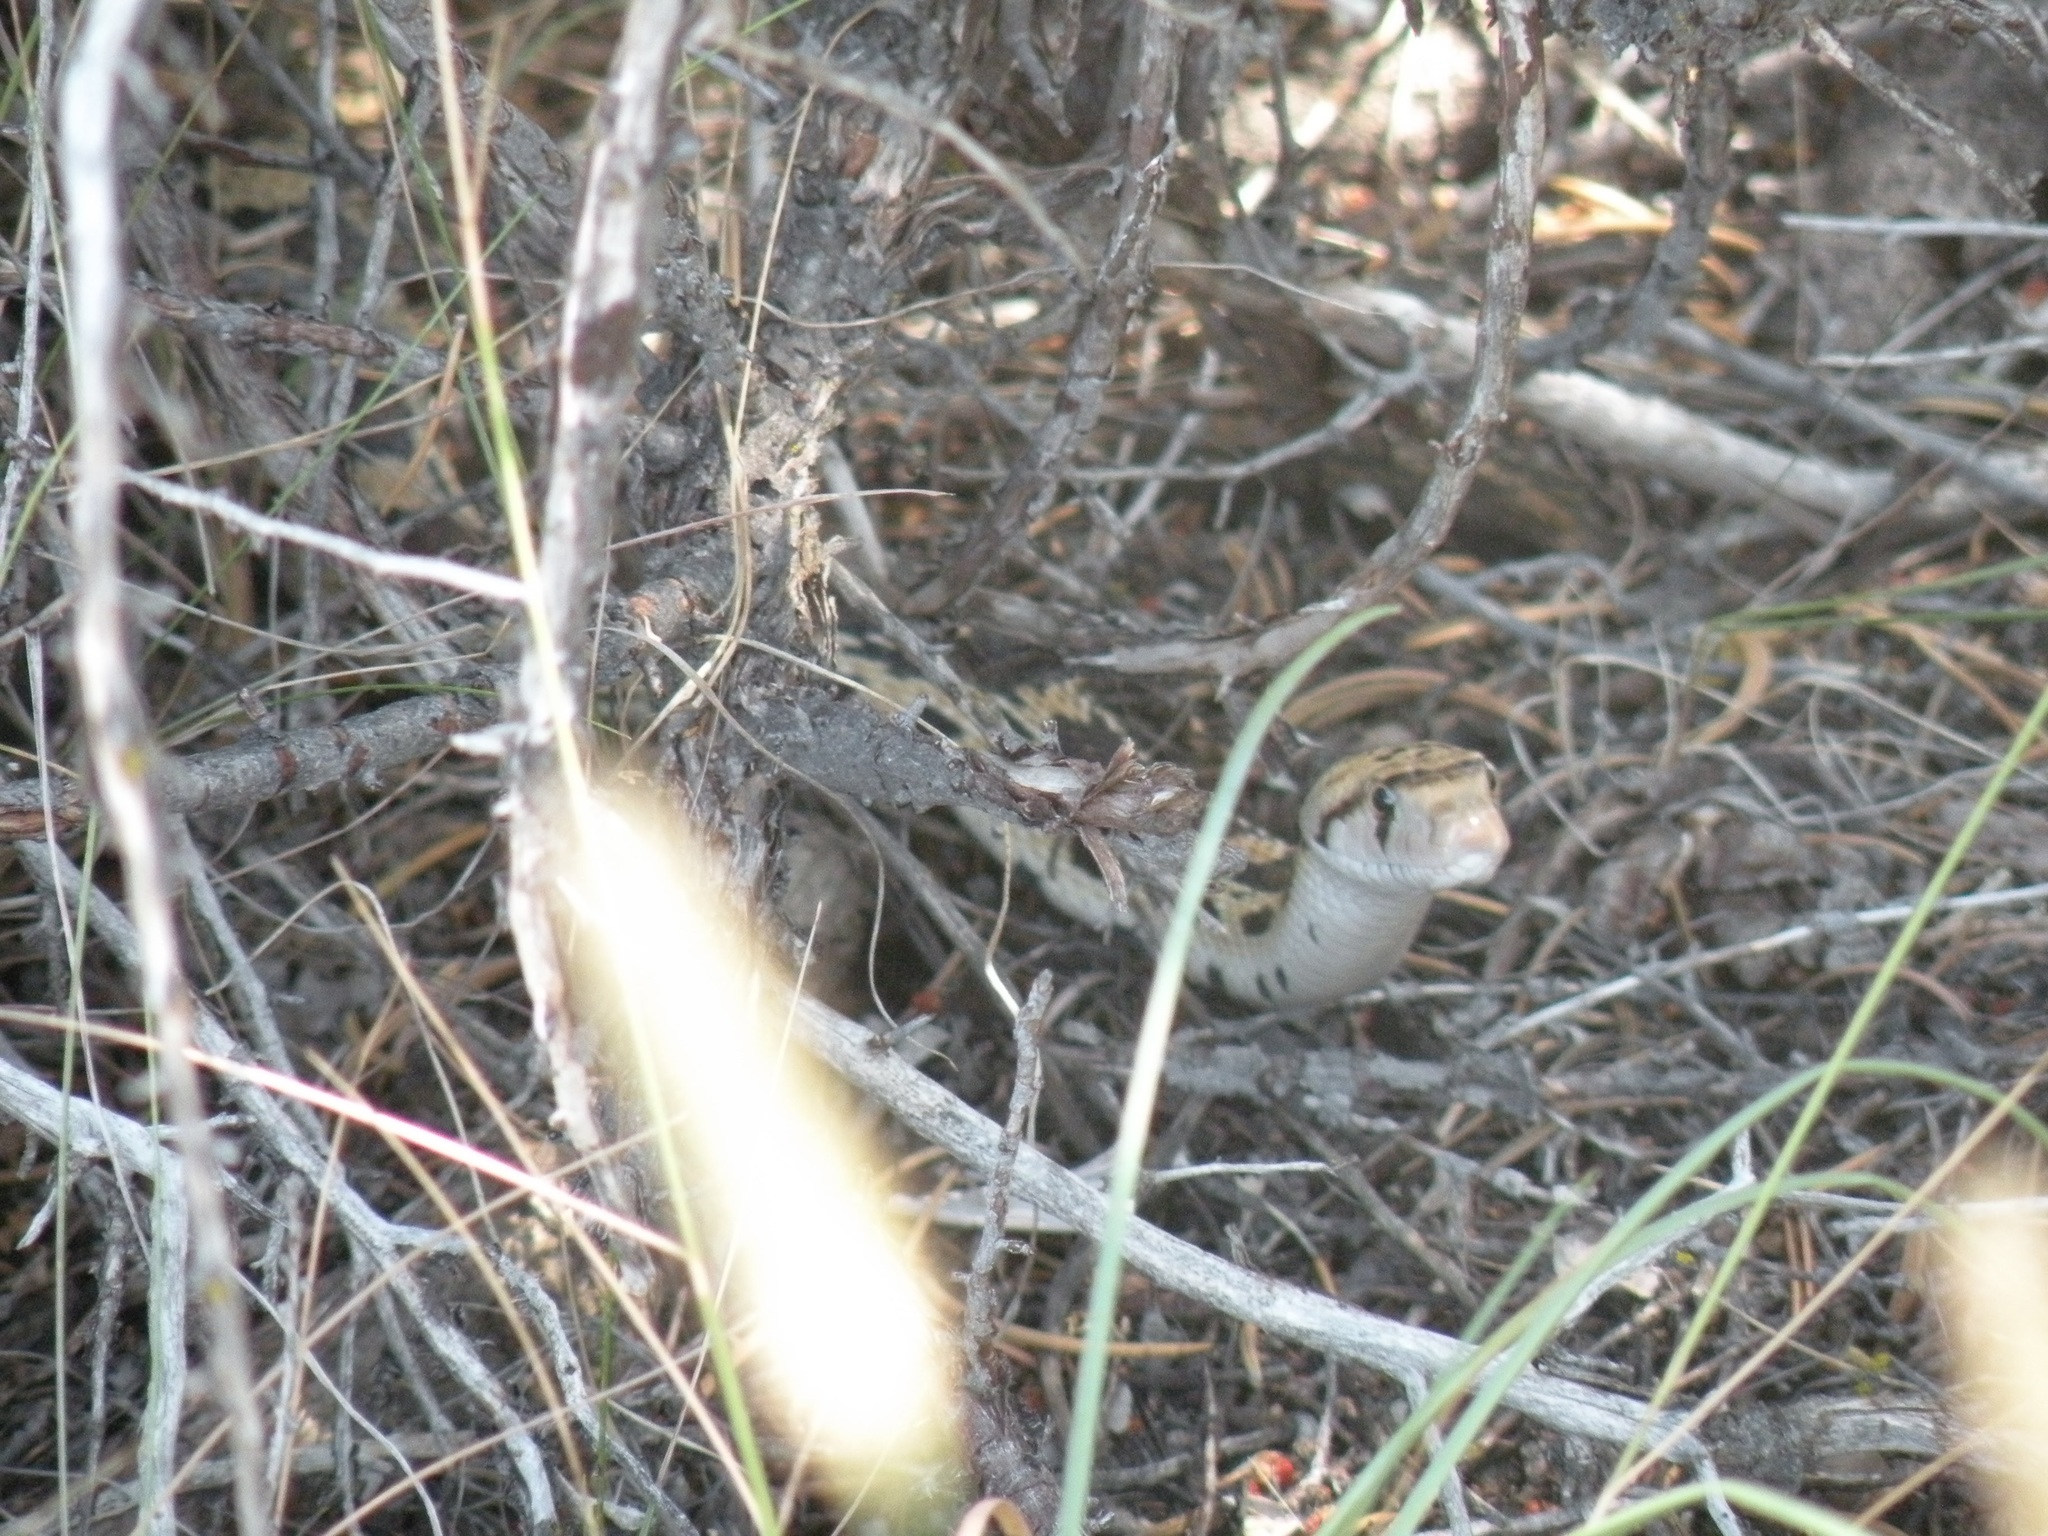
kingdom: Animalia
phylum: Chordata
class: Squamata
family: Colubridae
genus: Pituophis
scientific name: Pituophis catenifer
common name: Gopher snake
